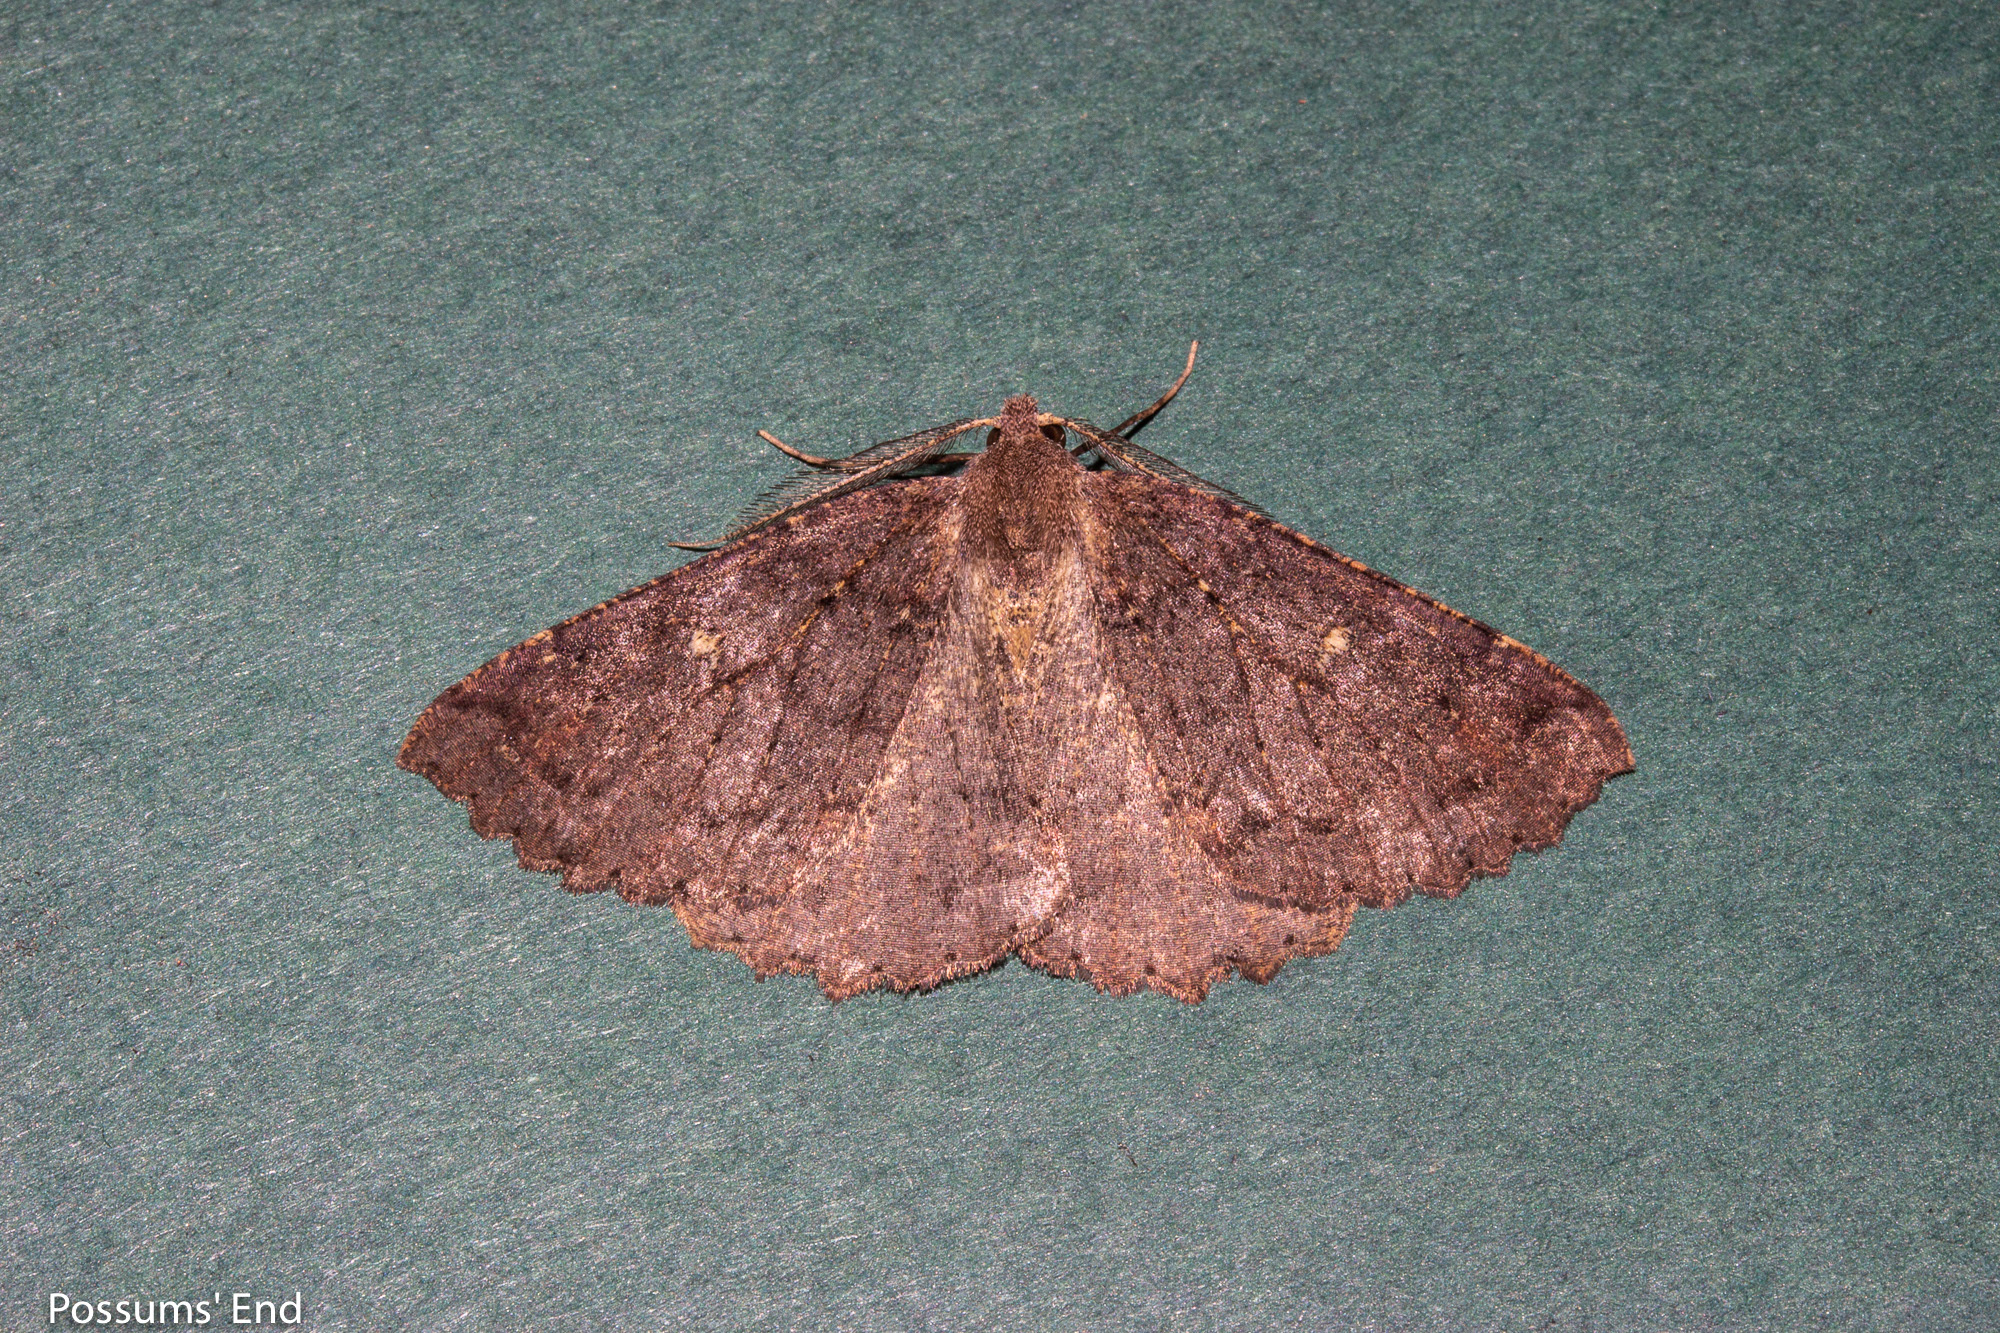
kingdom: Animalia
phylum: Arthropoda
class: Insecta
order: Lepidoptera
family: Geometridae
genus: Cleora
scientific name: Cleora scriptaria
